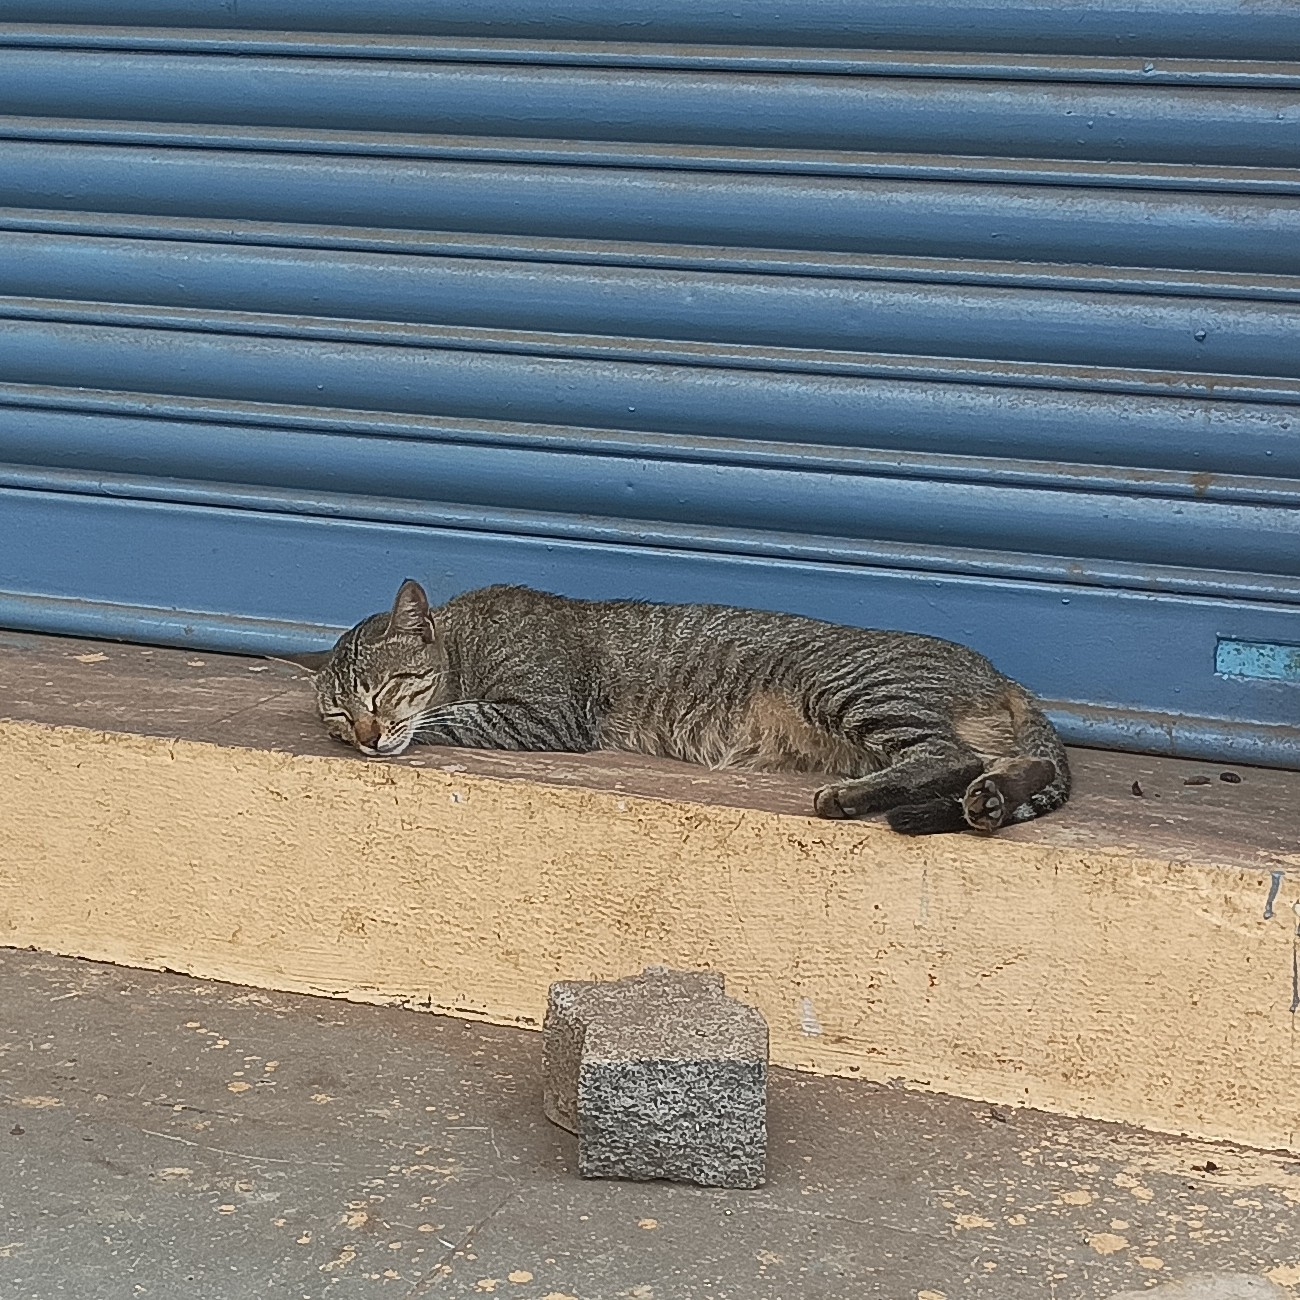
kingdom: Animalia
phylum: Chordata
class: Mammalia
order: Carnivora
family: Felidae
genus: Felis
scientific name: Felis catus
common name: Domestic cat
